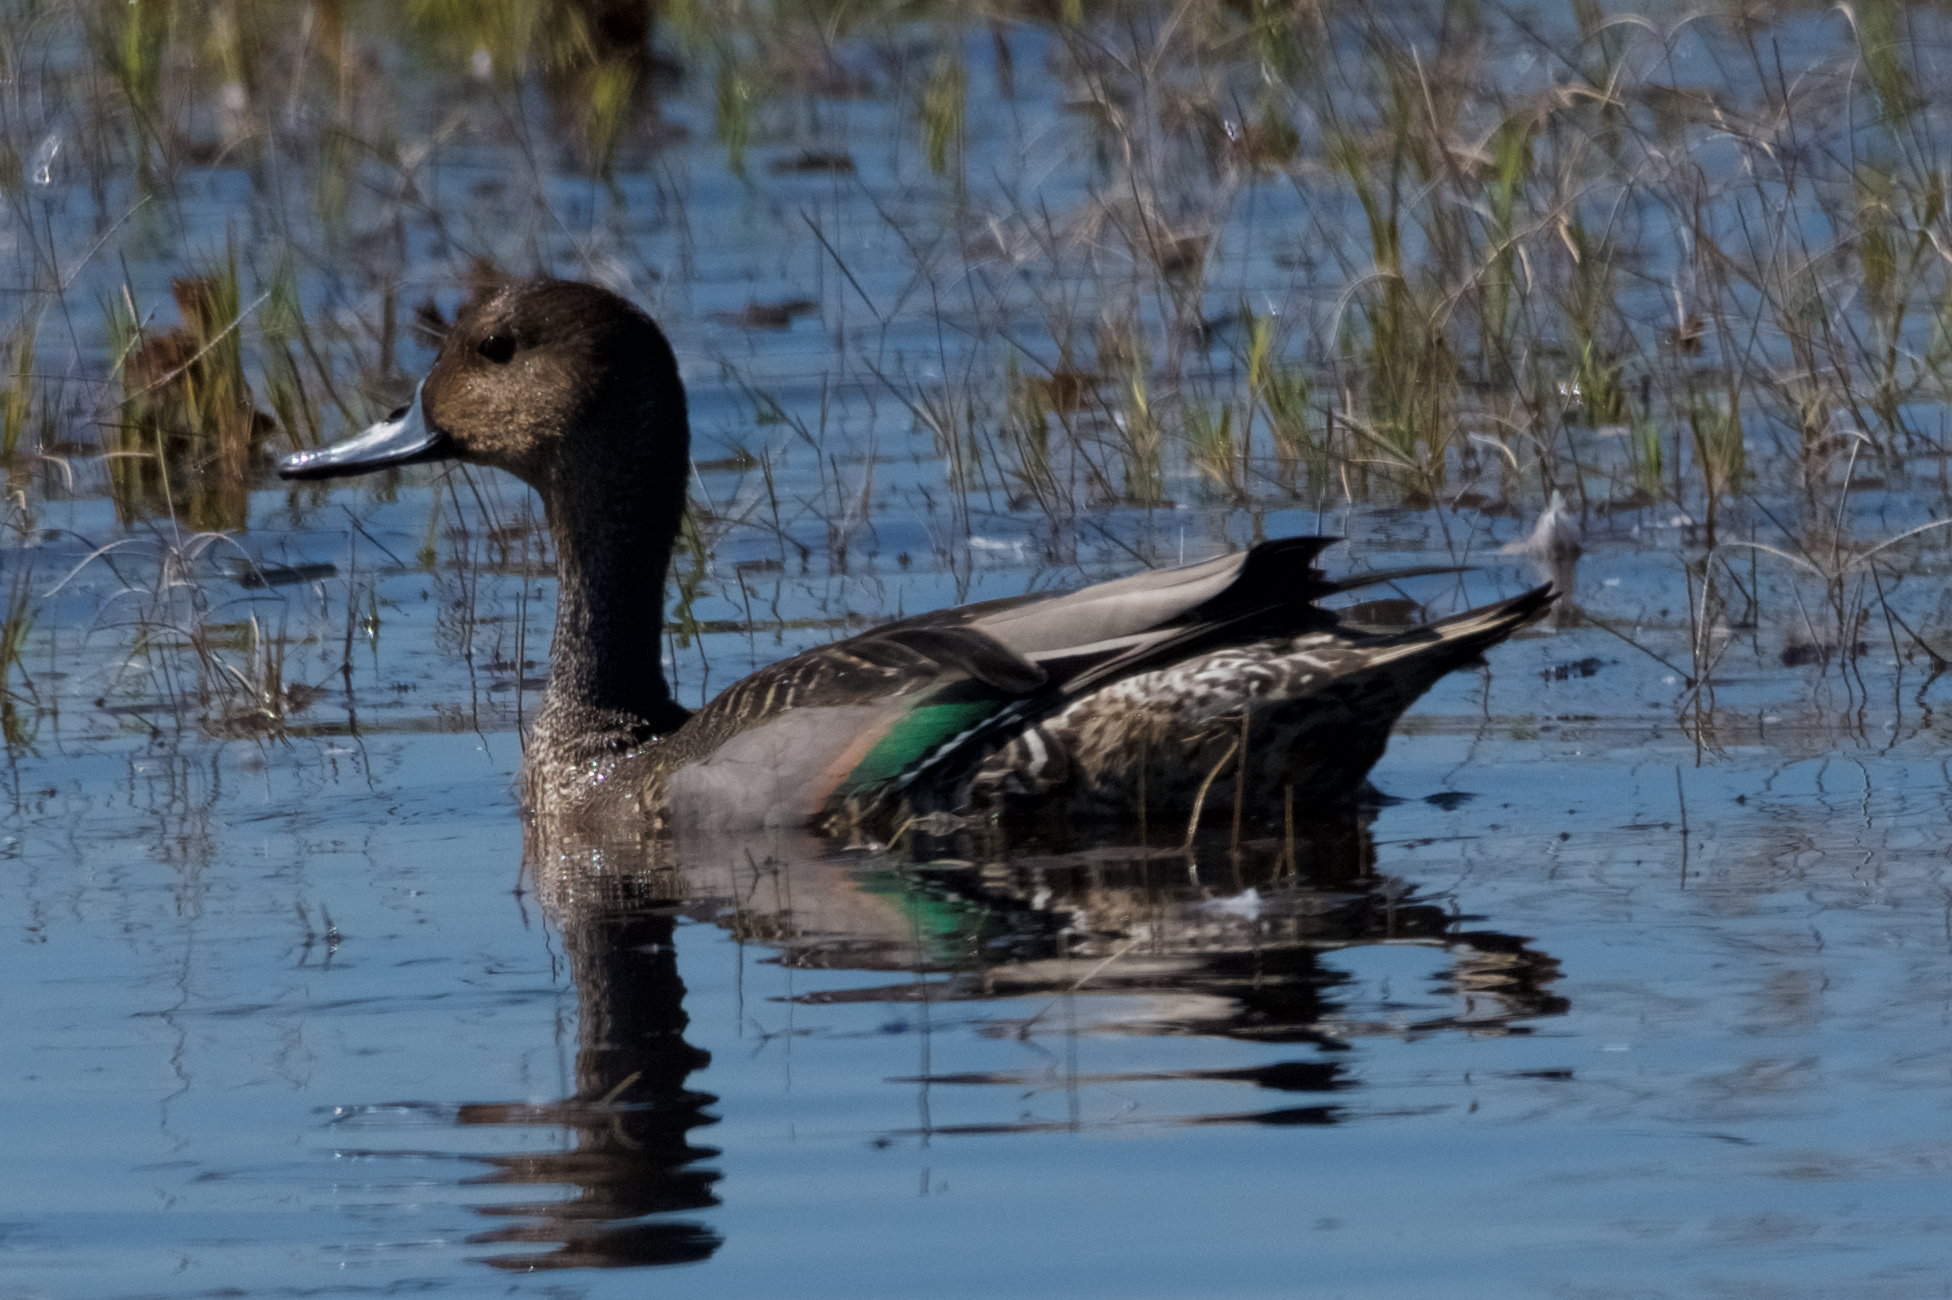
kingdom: Animalia
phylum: Chordata
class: Aves
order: Anseriformes
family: Anatidae
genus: Anas
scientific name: Anas acuta
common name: Northern pintail
